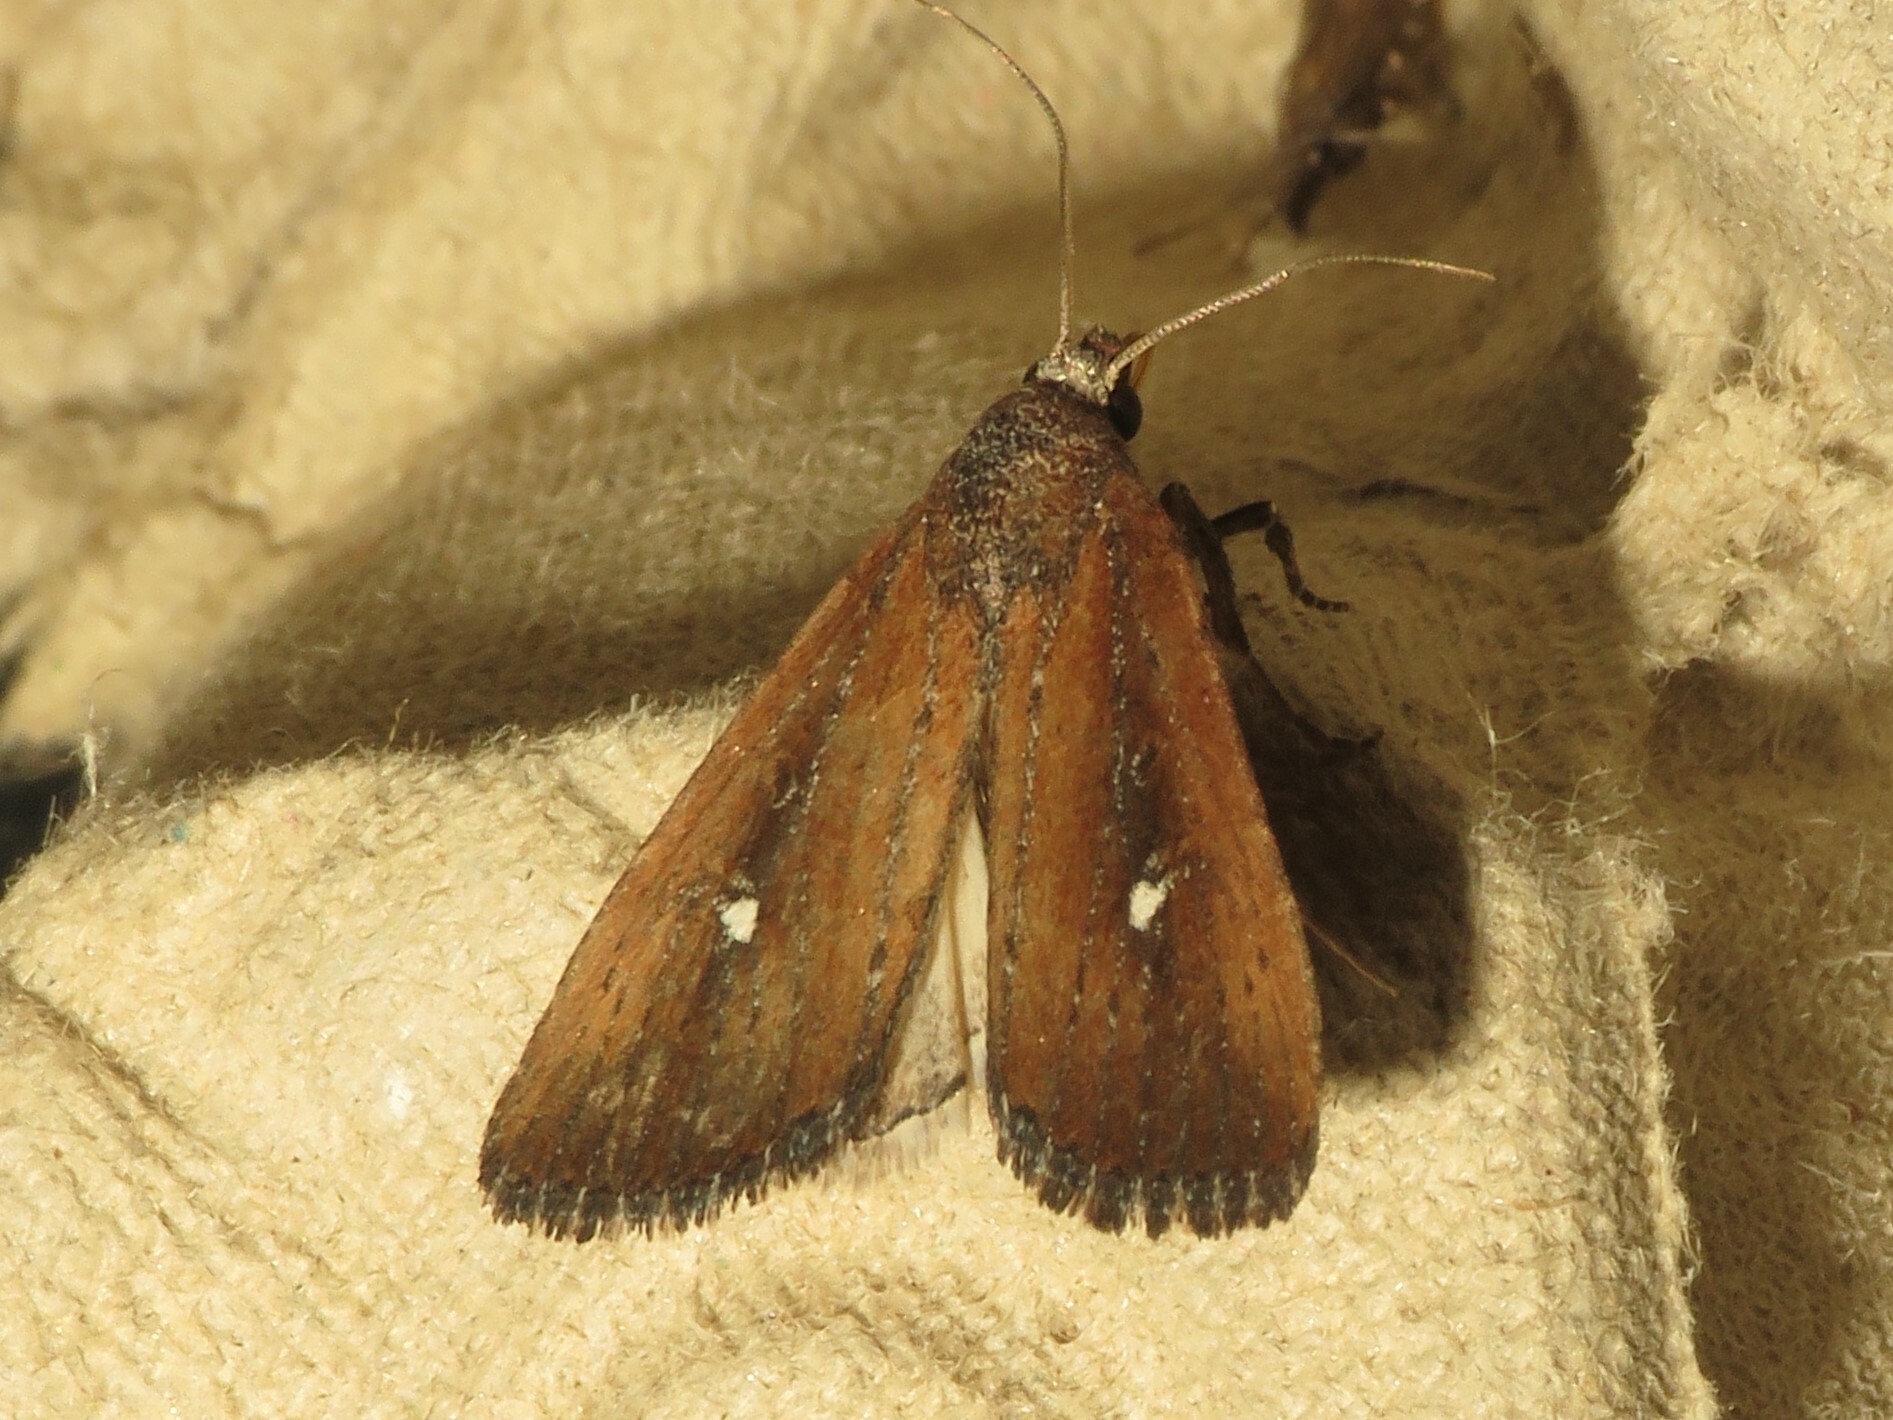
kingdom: Animalia
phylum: Arthropoda
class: Insecta
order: Lepidoptera
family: Noctuidae
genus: Condica
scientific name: Condica videns
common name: White-dotted groundling
